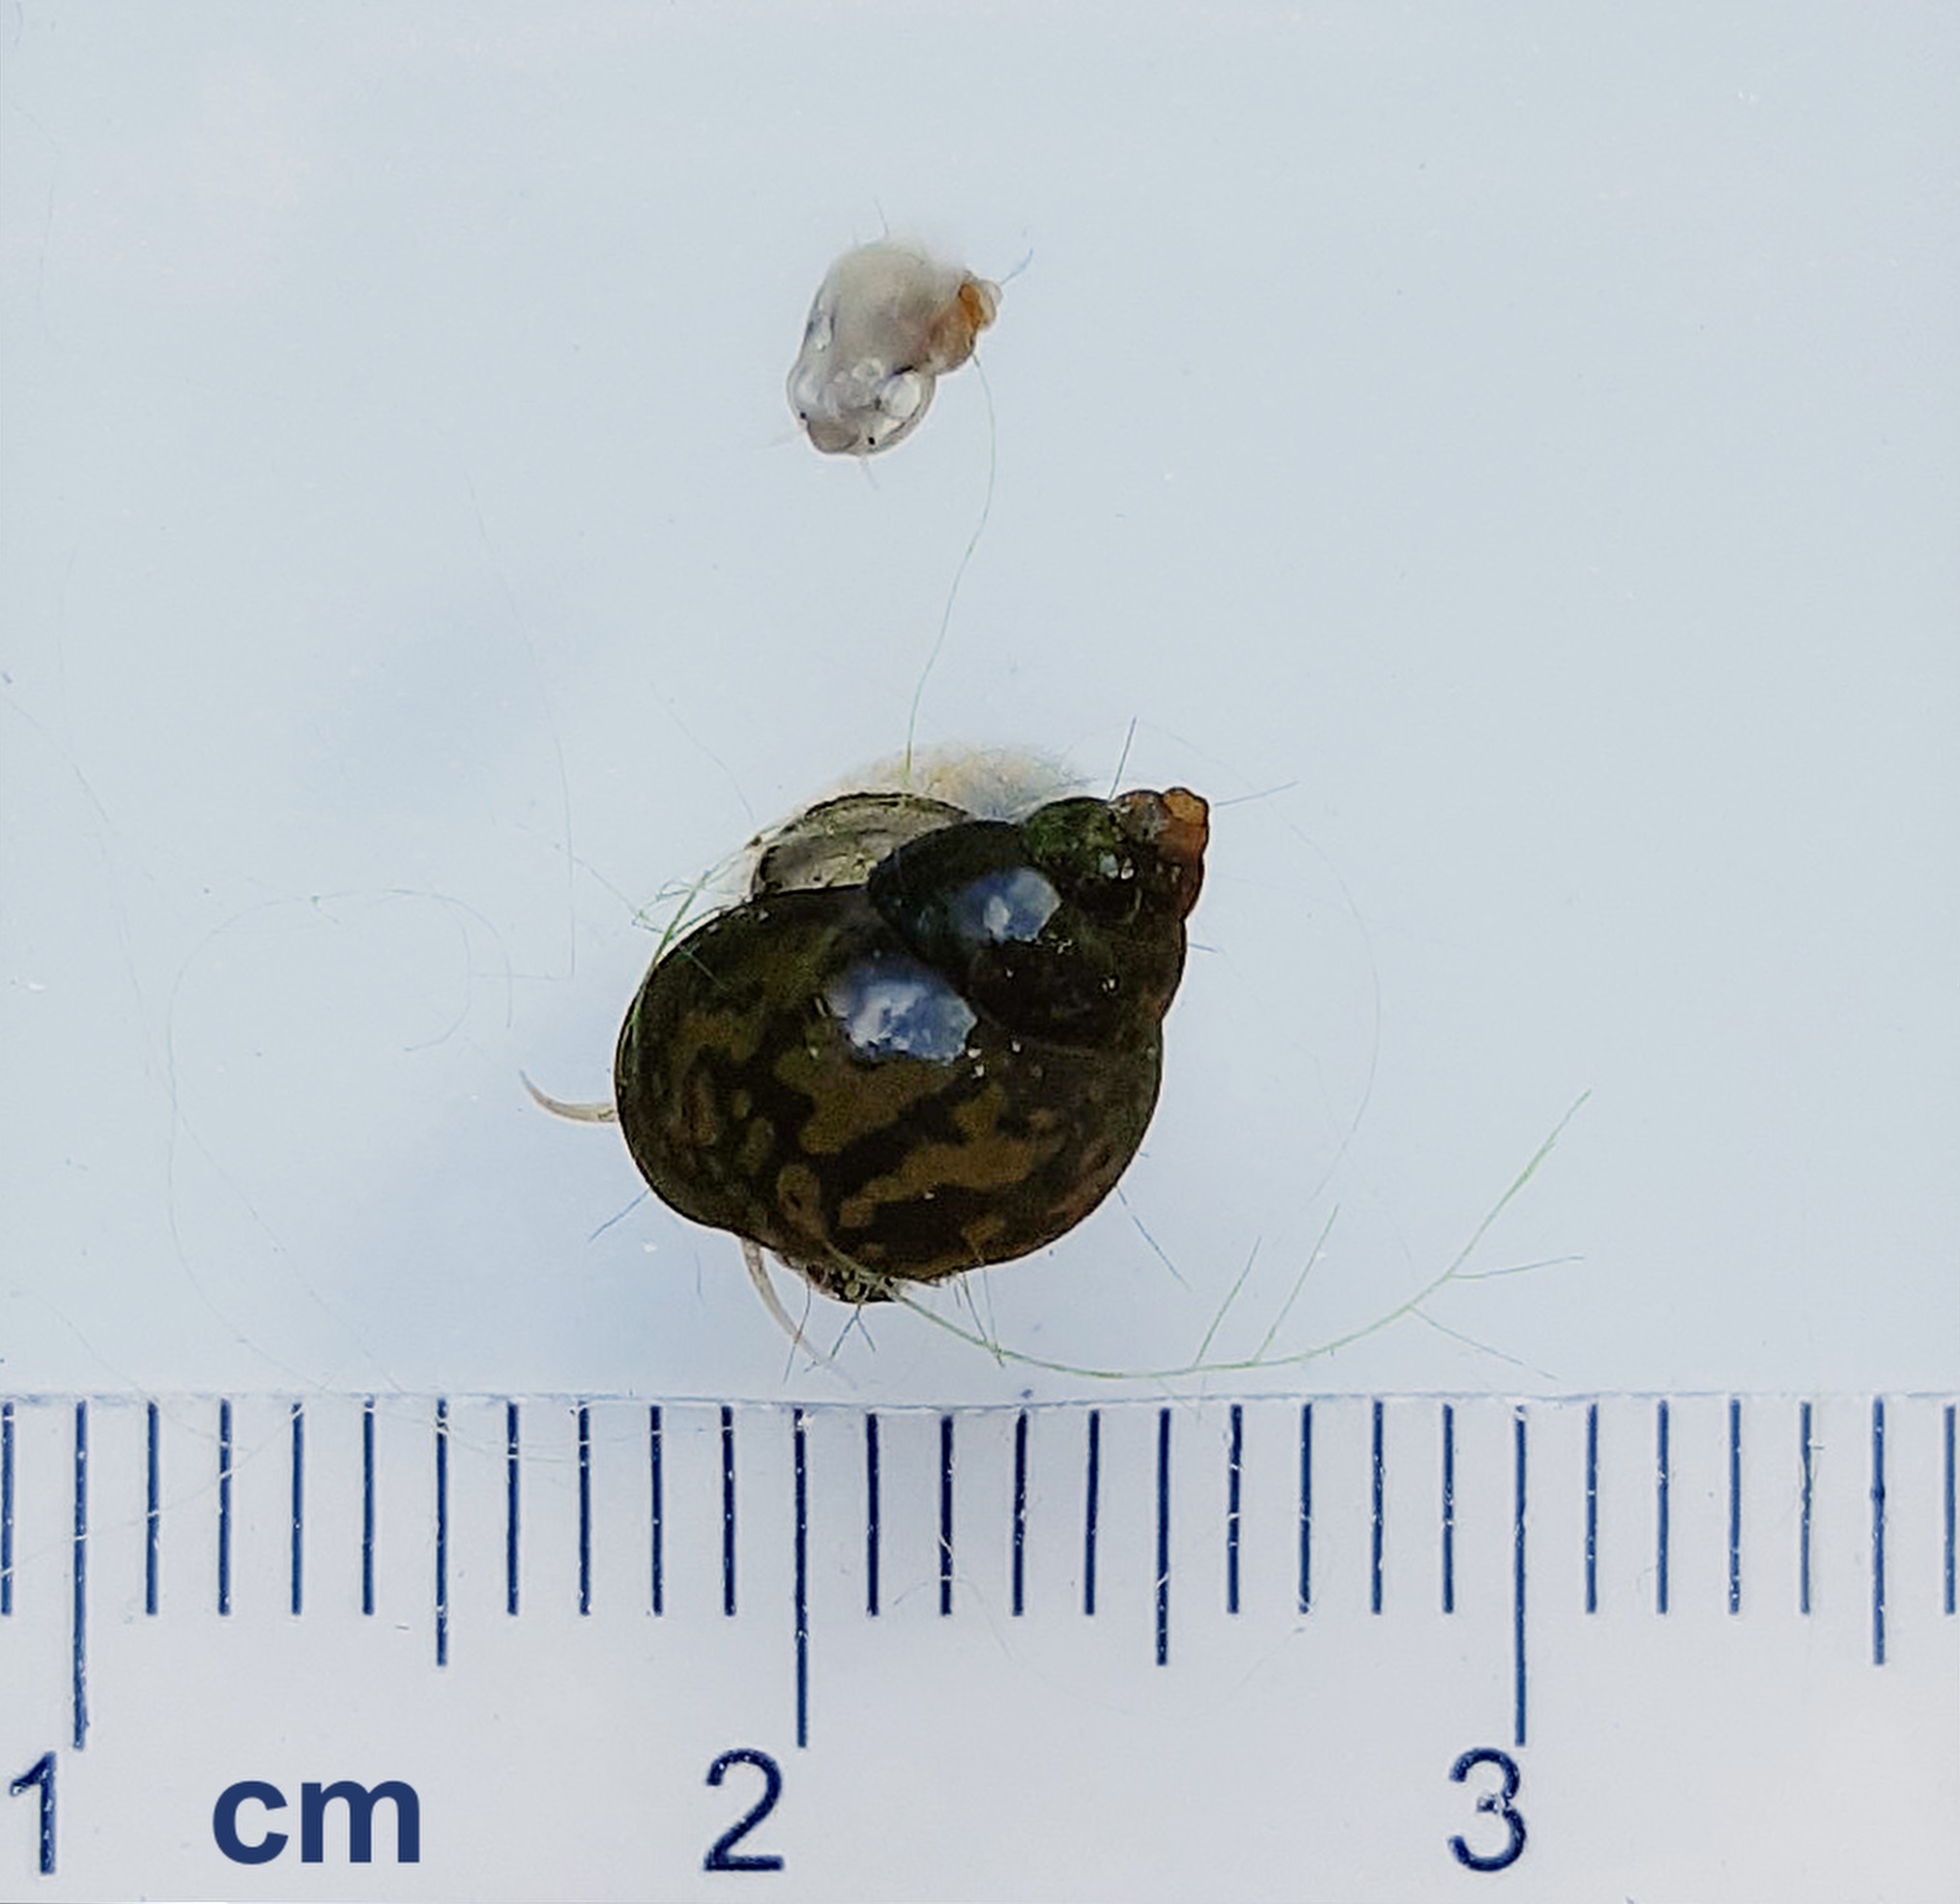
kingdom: Animalia
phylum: Mollusca
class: Gastropoda
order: Littorinimorpha
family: Bithyniidae
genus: Bithynia
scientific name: Bithynia tentaculata
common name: Common bithynia
